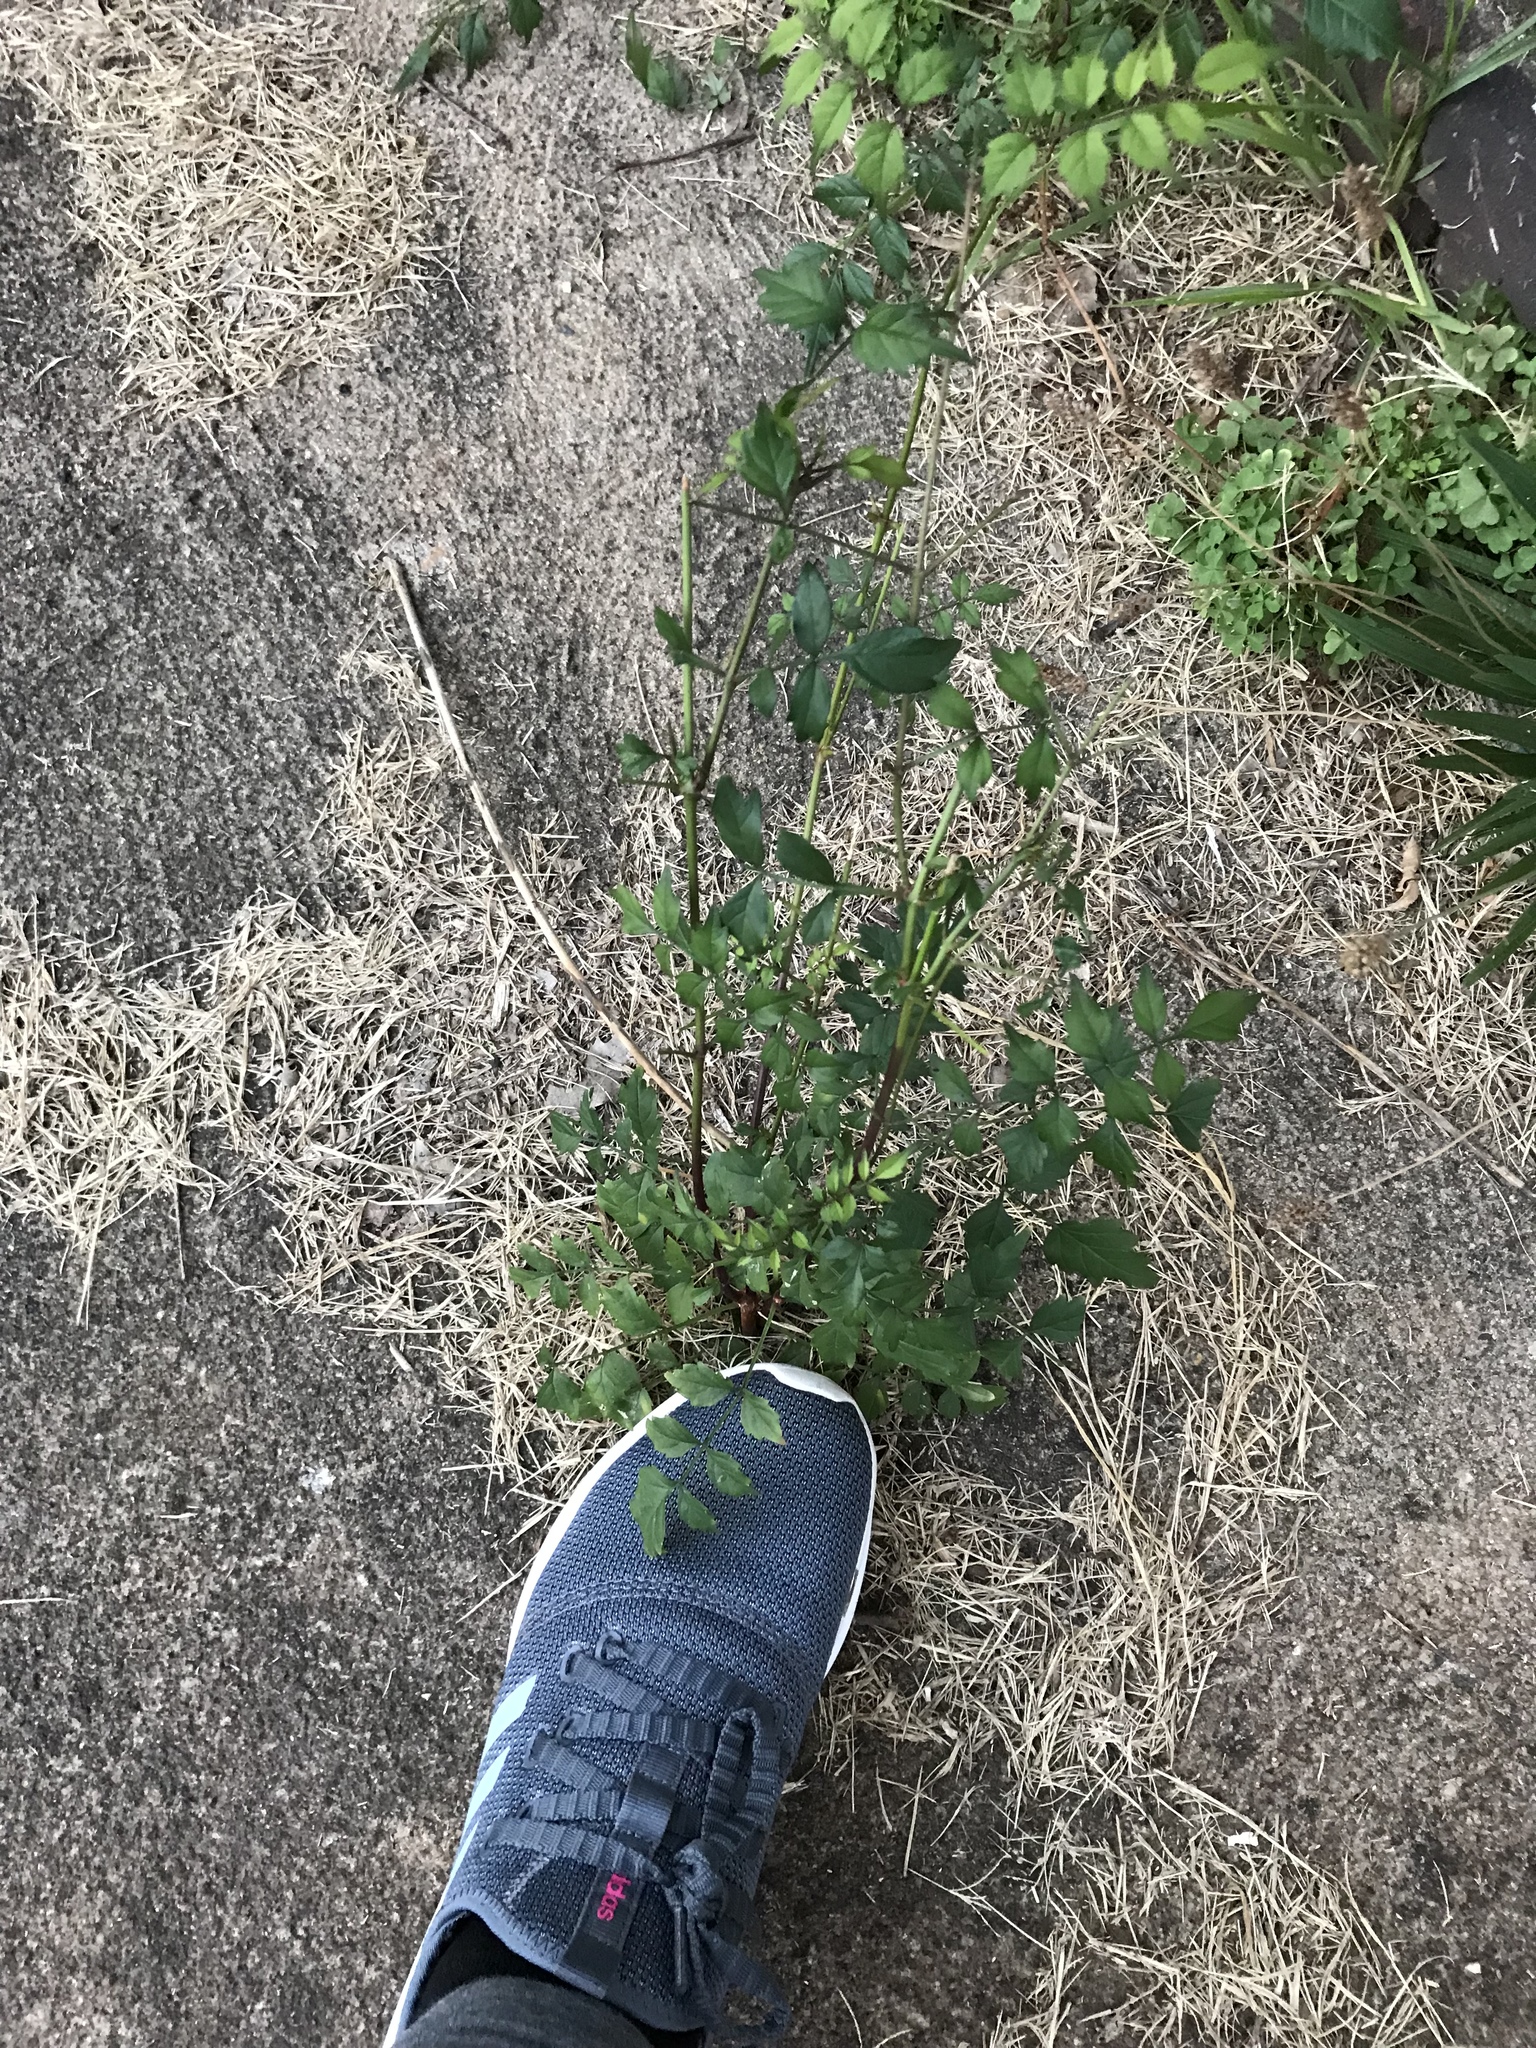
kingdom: Plantae
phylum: Tracheophyta
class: Magnoliopsida
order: Lamiales
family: Bignoniaceae
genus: Campsis
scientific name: Campsis radicans
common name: Trumpet-creeper
